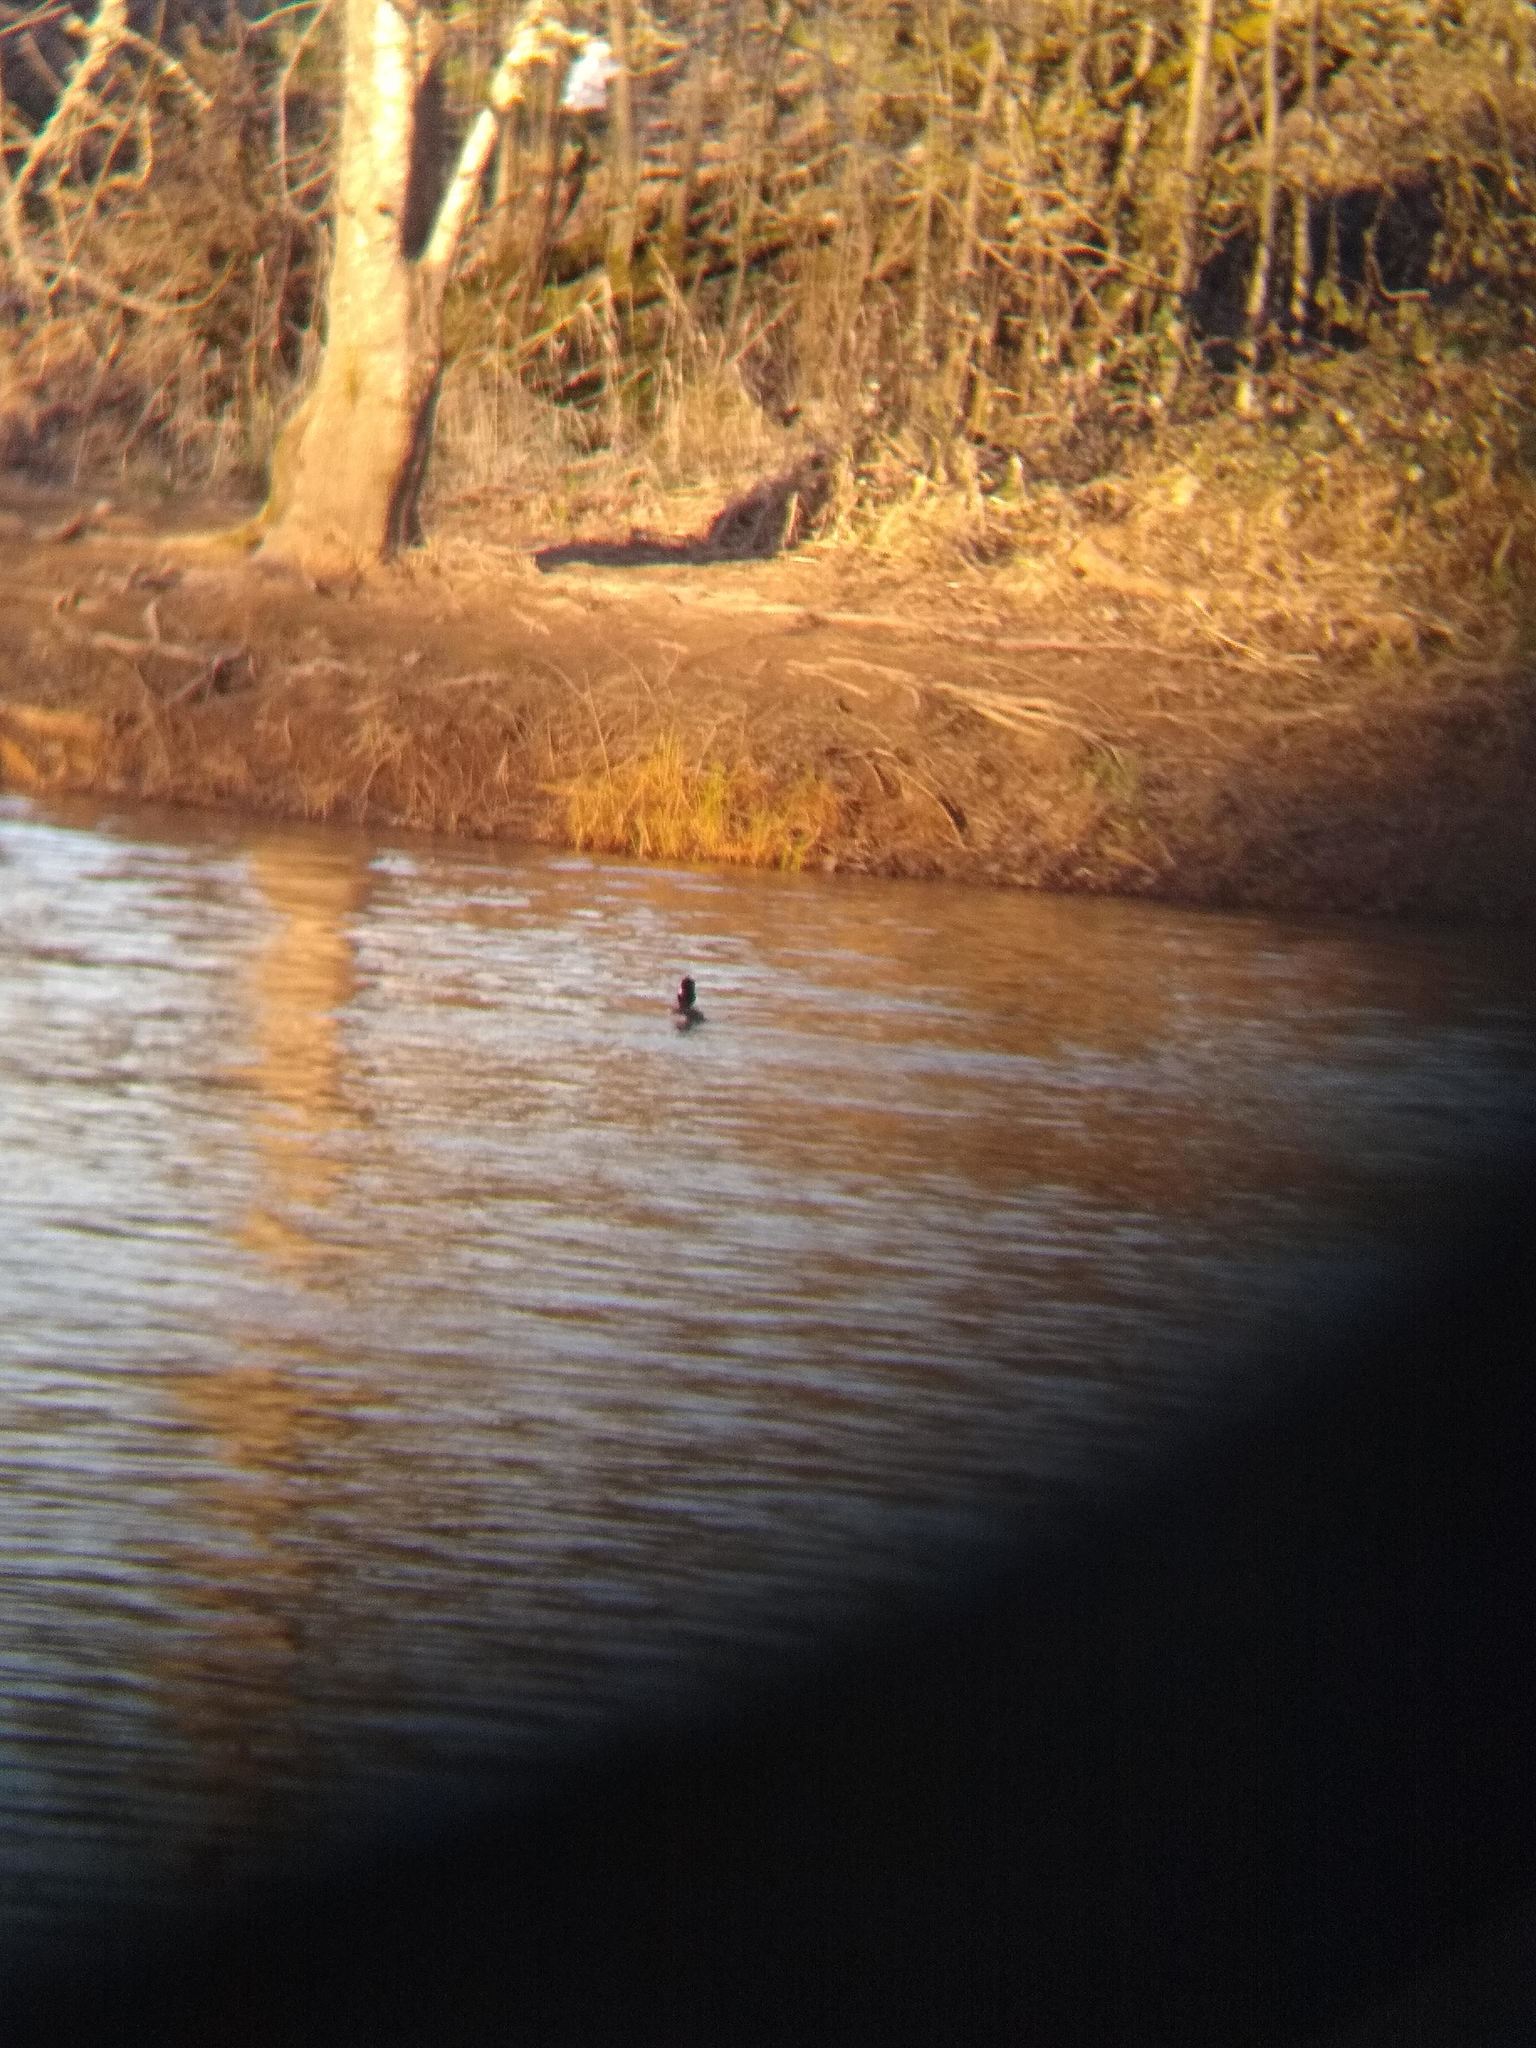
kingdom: Animalia
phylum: Chordata
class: Aves
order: Anseriformes
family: Anatidae
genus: Bucephala
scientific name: Bucephala albeola
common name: Bufflehead
